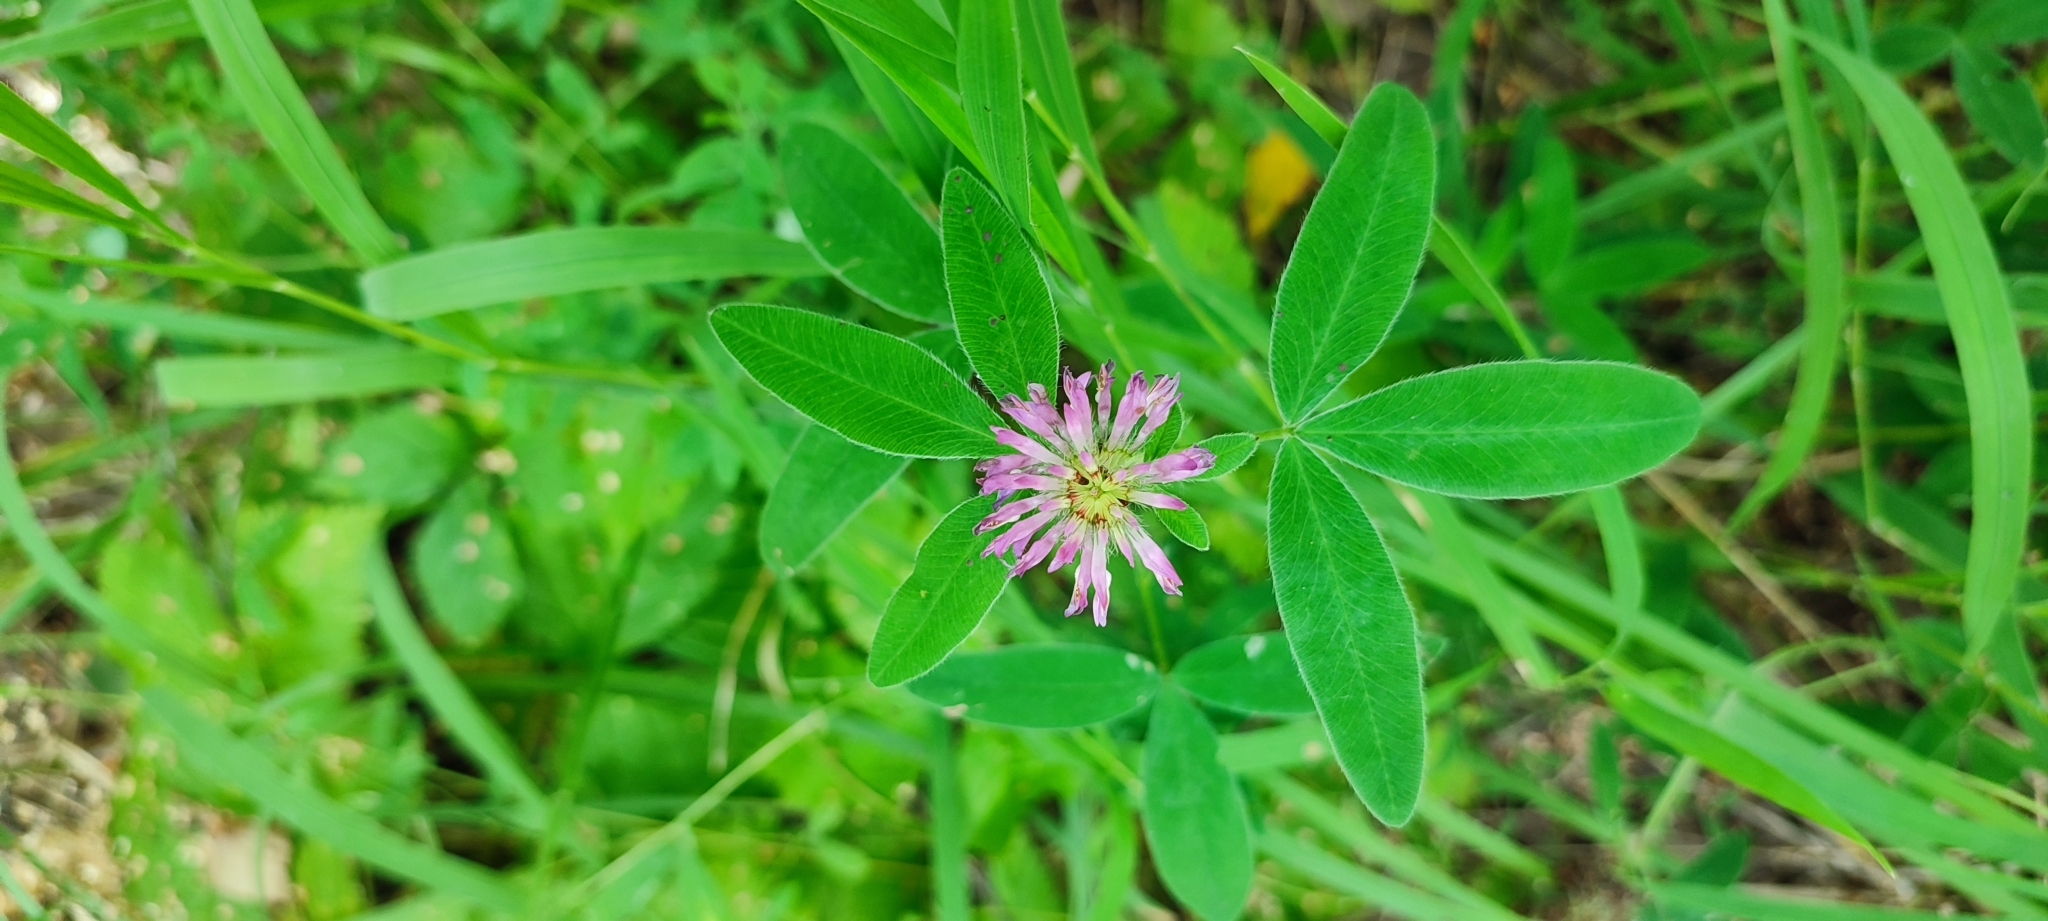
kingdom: Plantae
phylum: Tracheophyta
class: Magnoliopsida
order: Fabales
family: Fabaceae
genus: Trifolium
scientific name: Trifolium medium
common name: Zigzag clover
